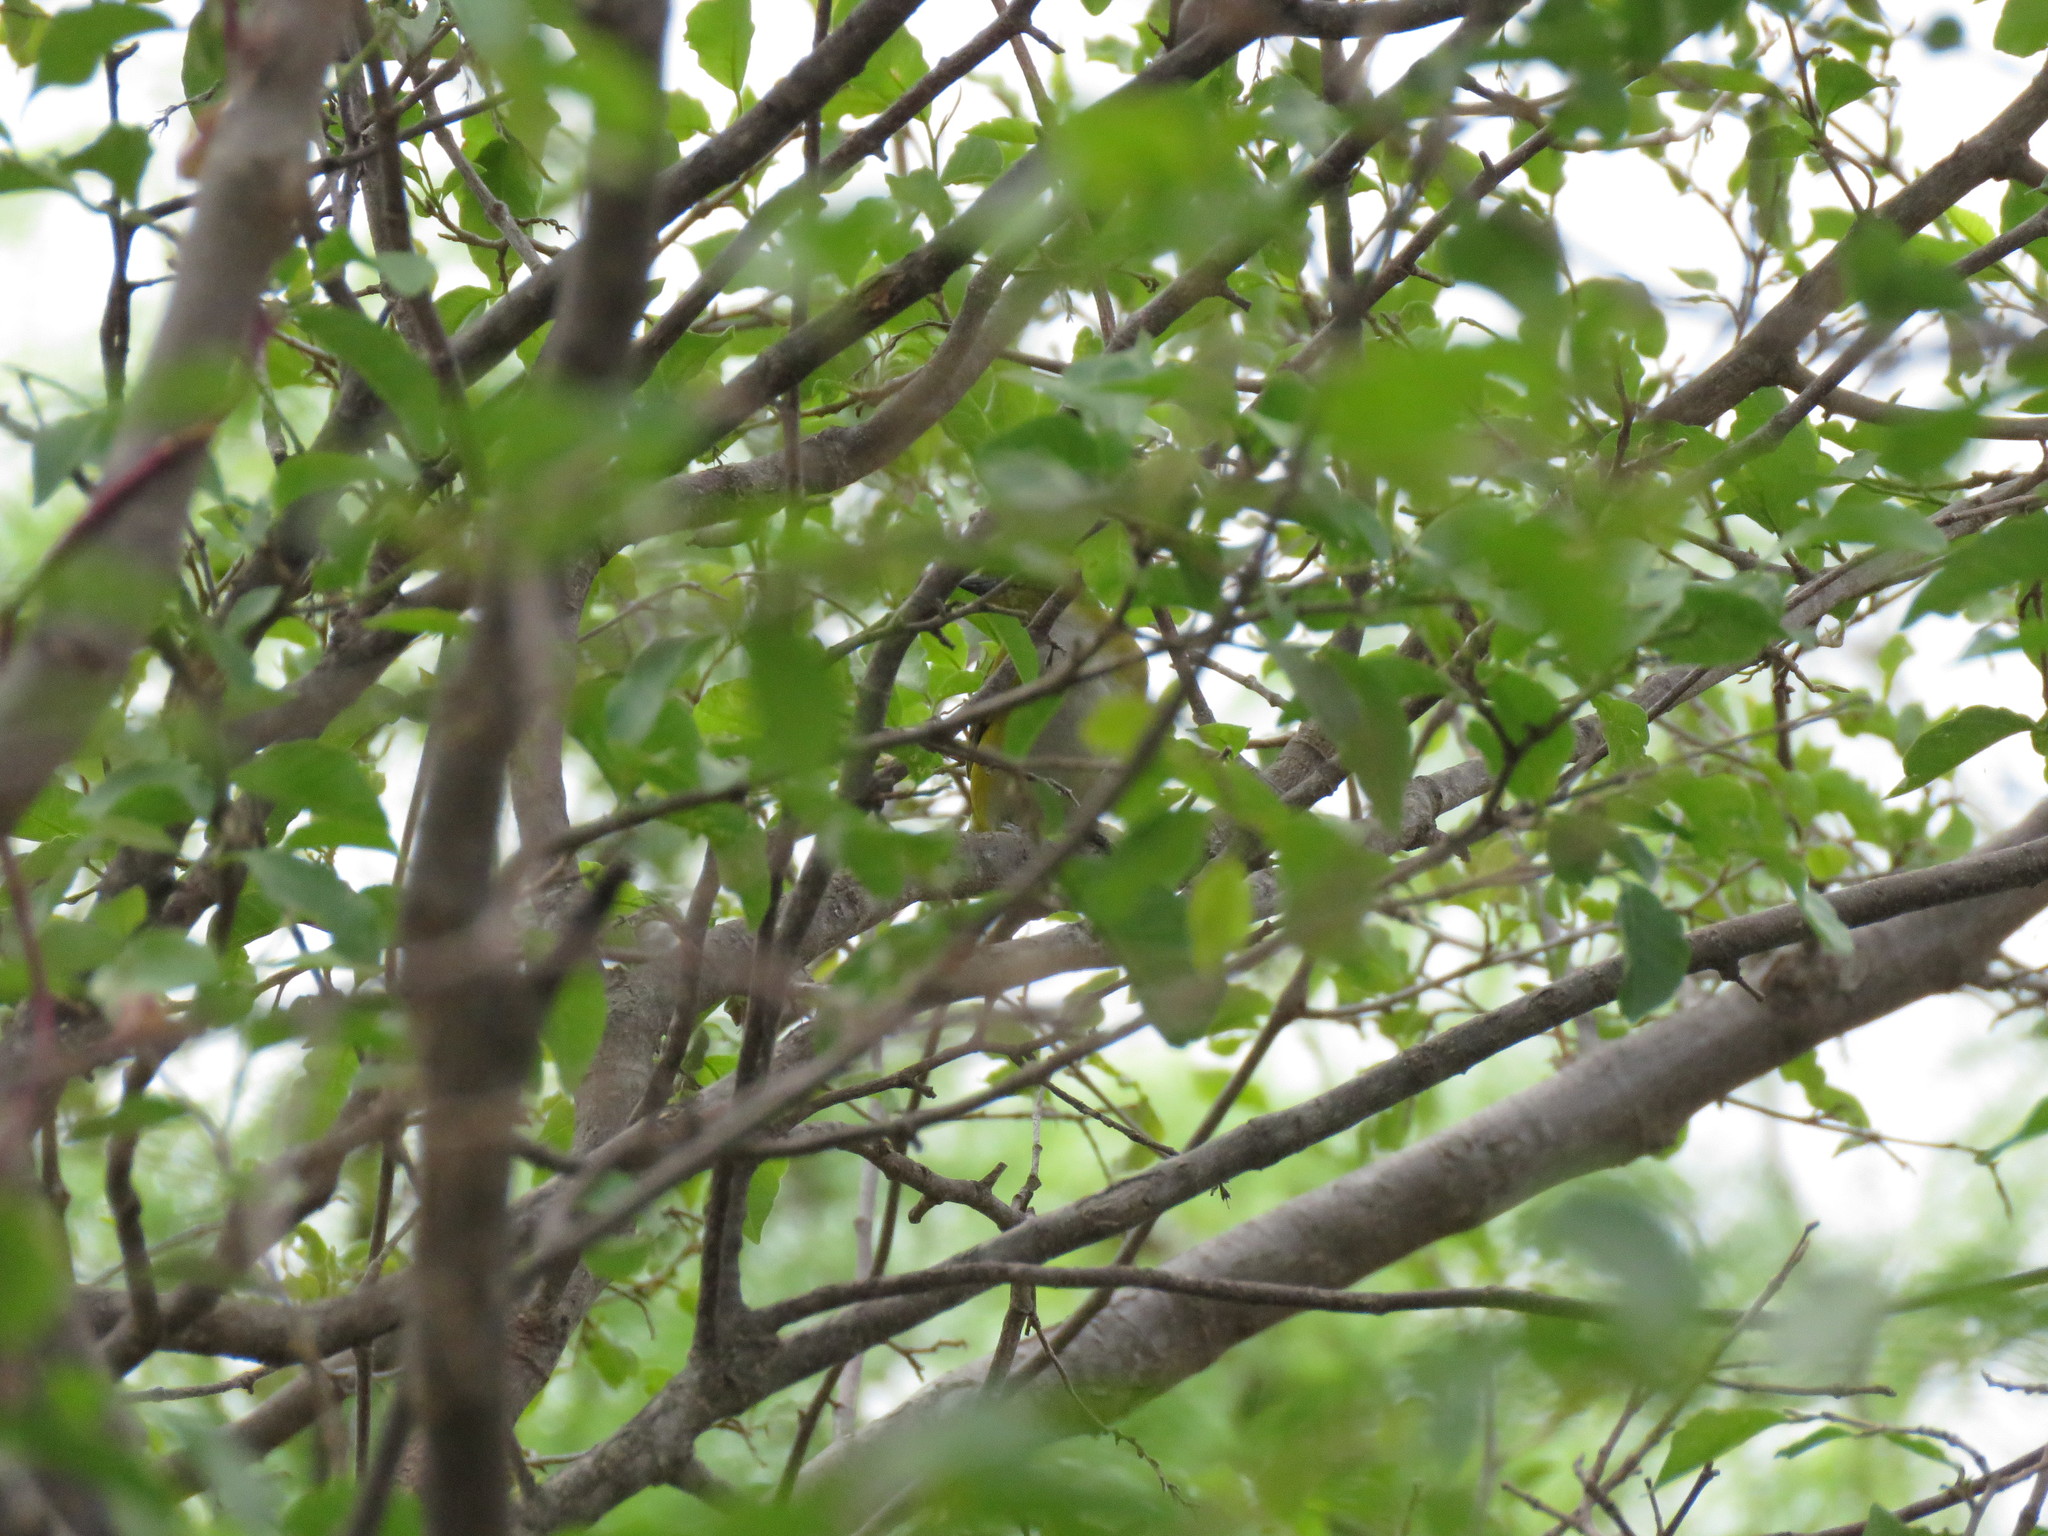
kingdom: Animalia
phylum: Chordata
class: Aves
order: Passeriformes
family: Fringillidae
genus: Euphonia
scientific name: Euphonia chlorotica
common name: Purple-throated euphonia
